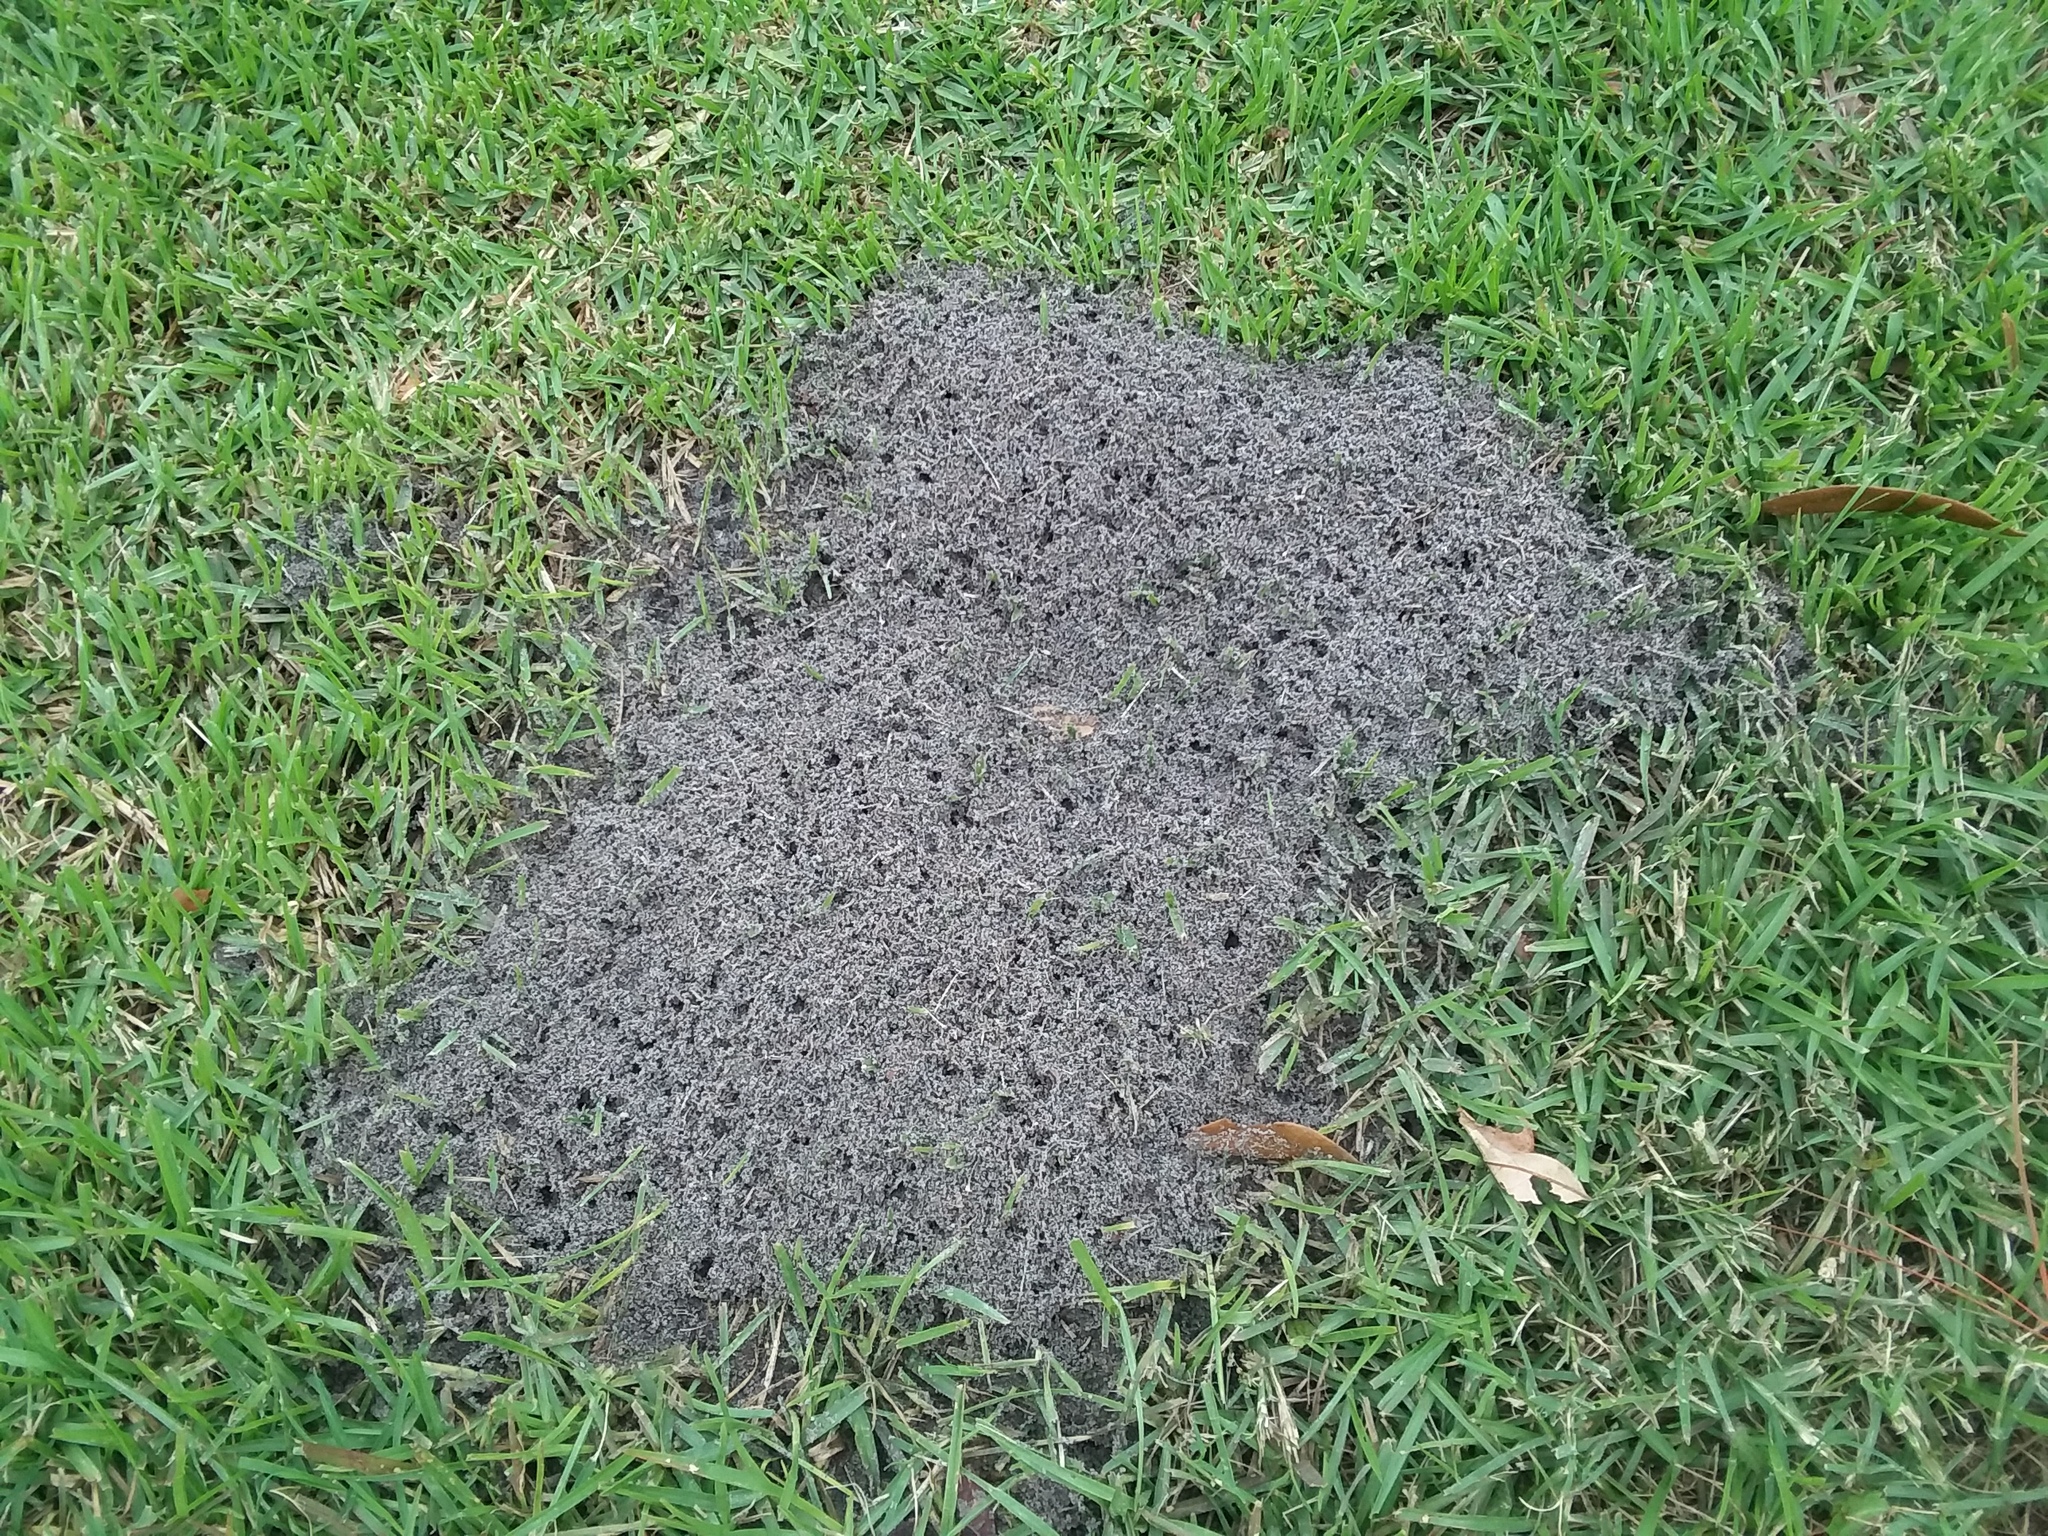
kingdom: Animalia
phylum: Arthropoda
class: Insecta
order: Hymenoptera
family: Formicidae
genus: Solenopsis
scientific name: Solenopsis invicta
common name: Red imported fire ant
